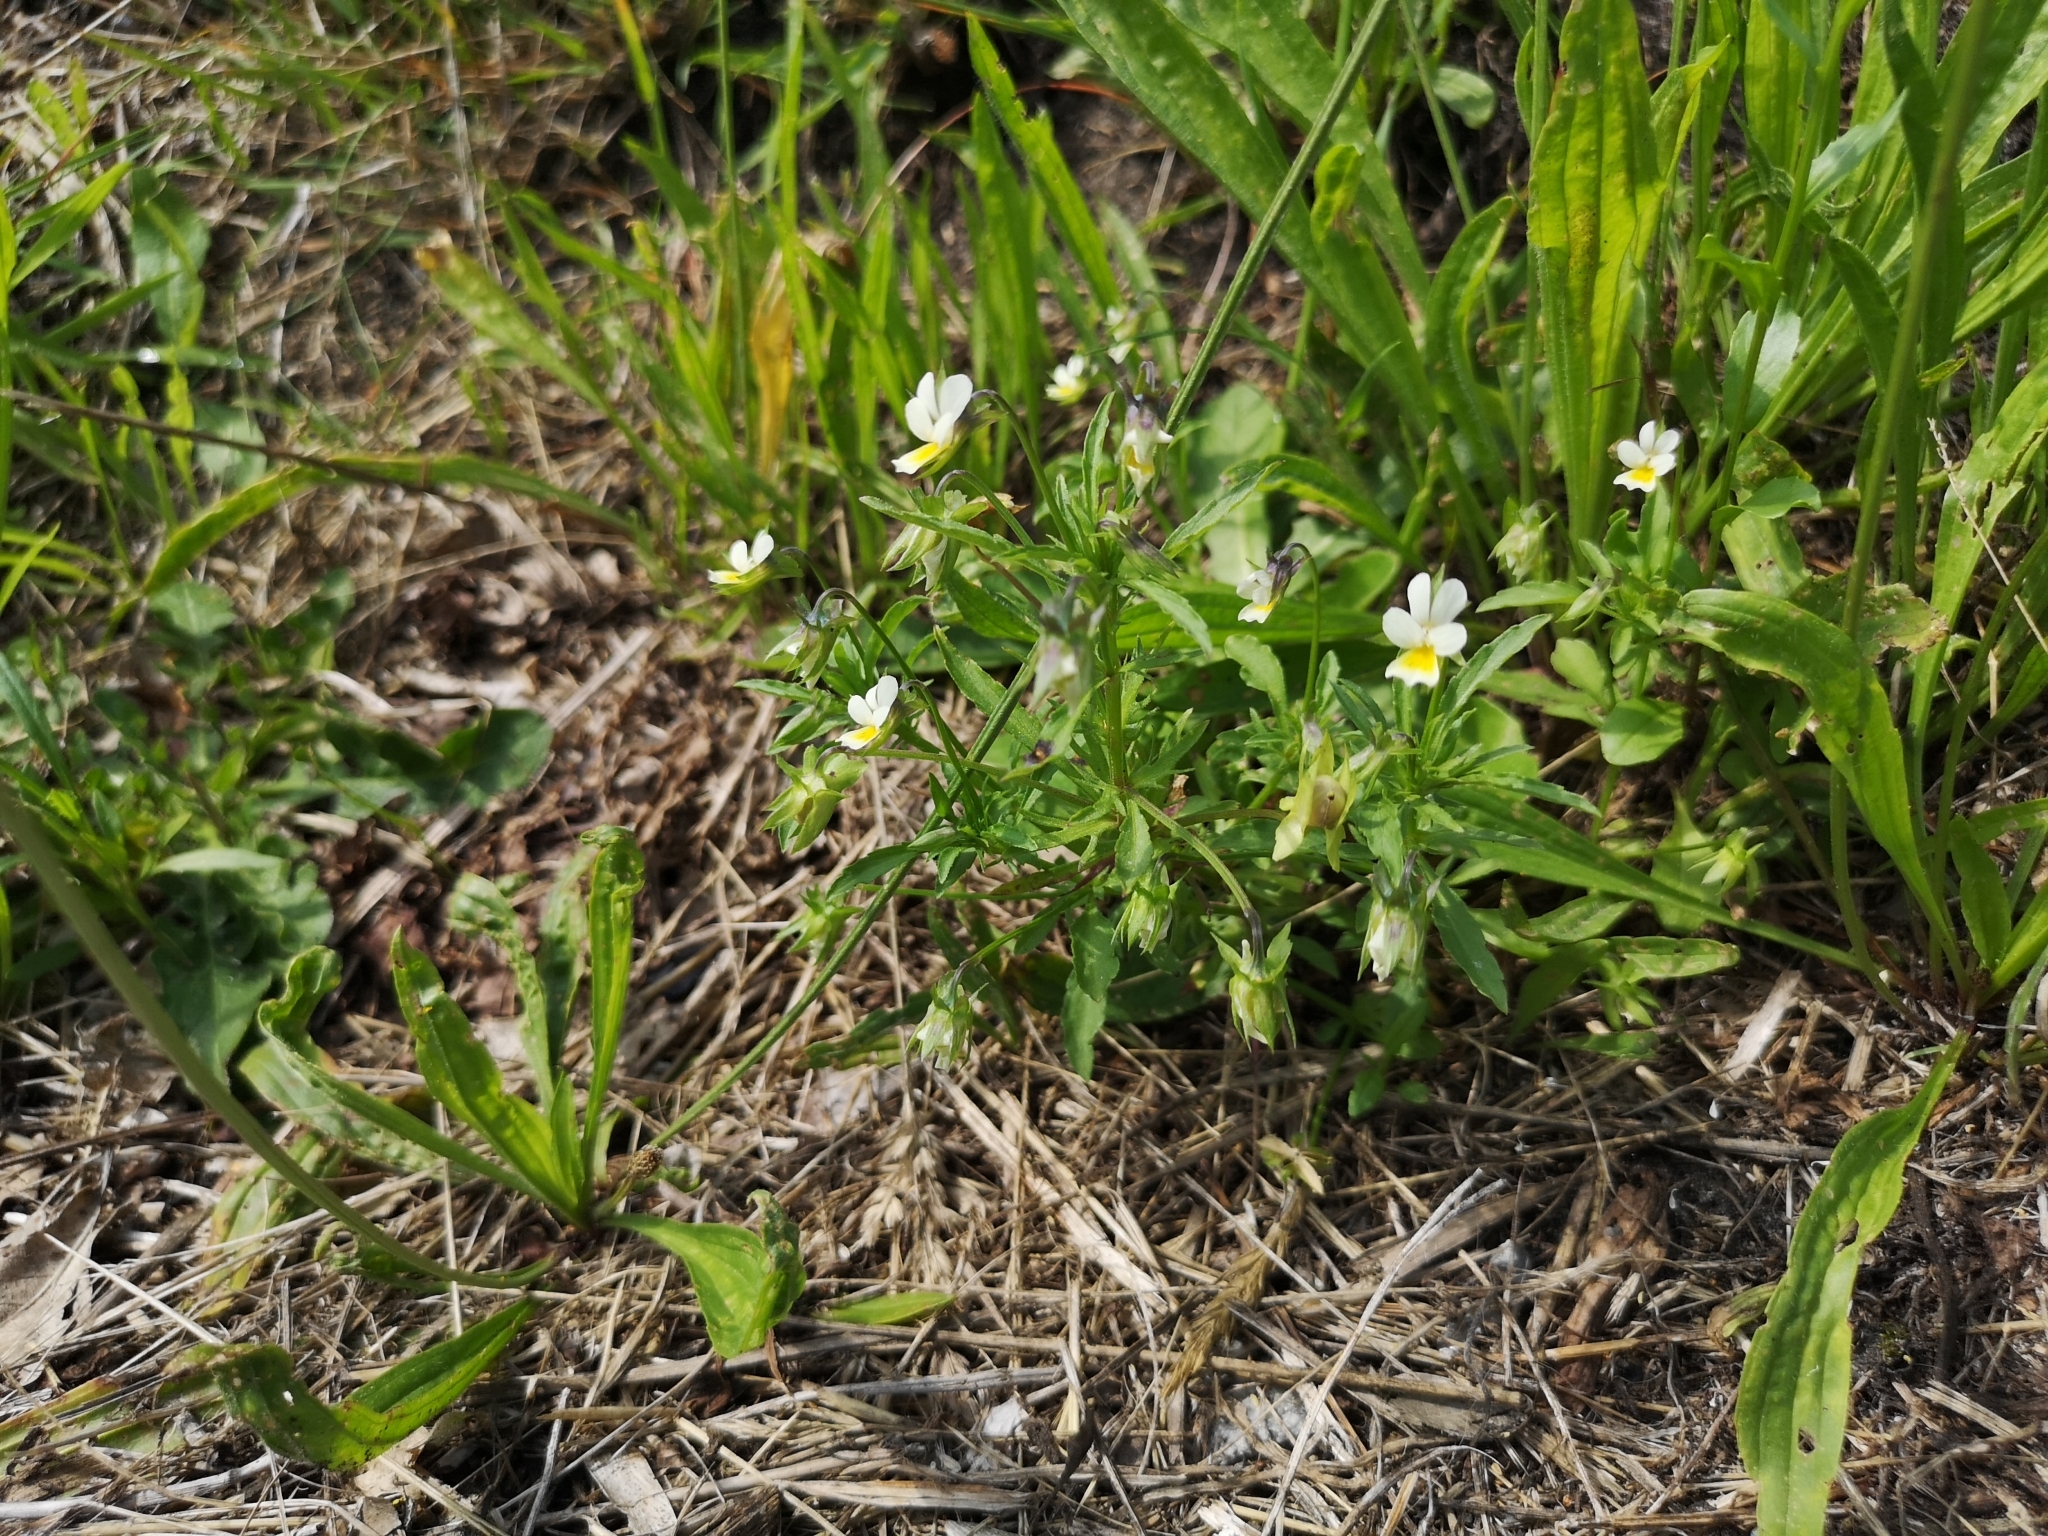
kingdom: Plantae
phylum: Tracheophyta
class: Magnoliopsida
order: Malpighiales
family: Violaceae
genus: Viola
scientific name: Viola arvensis
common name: Field pansy
